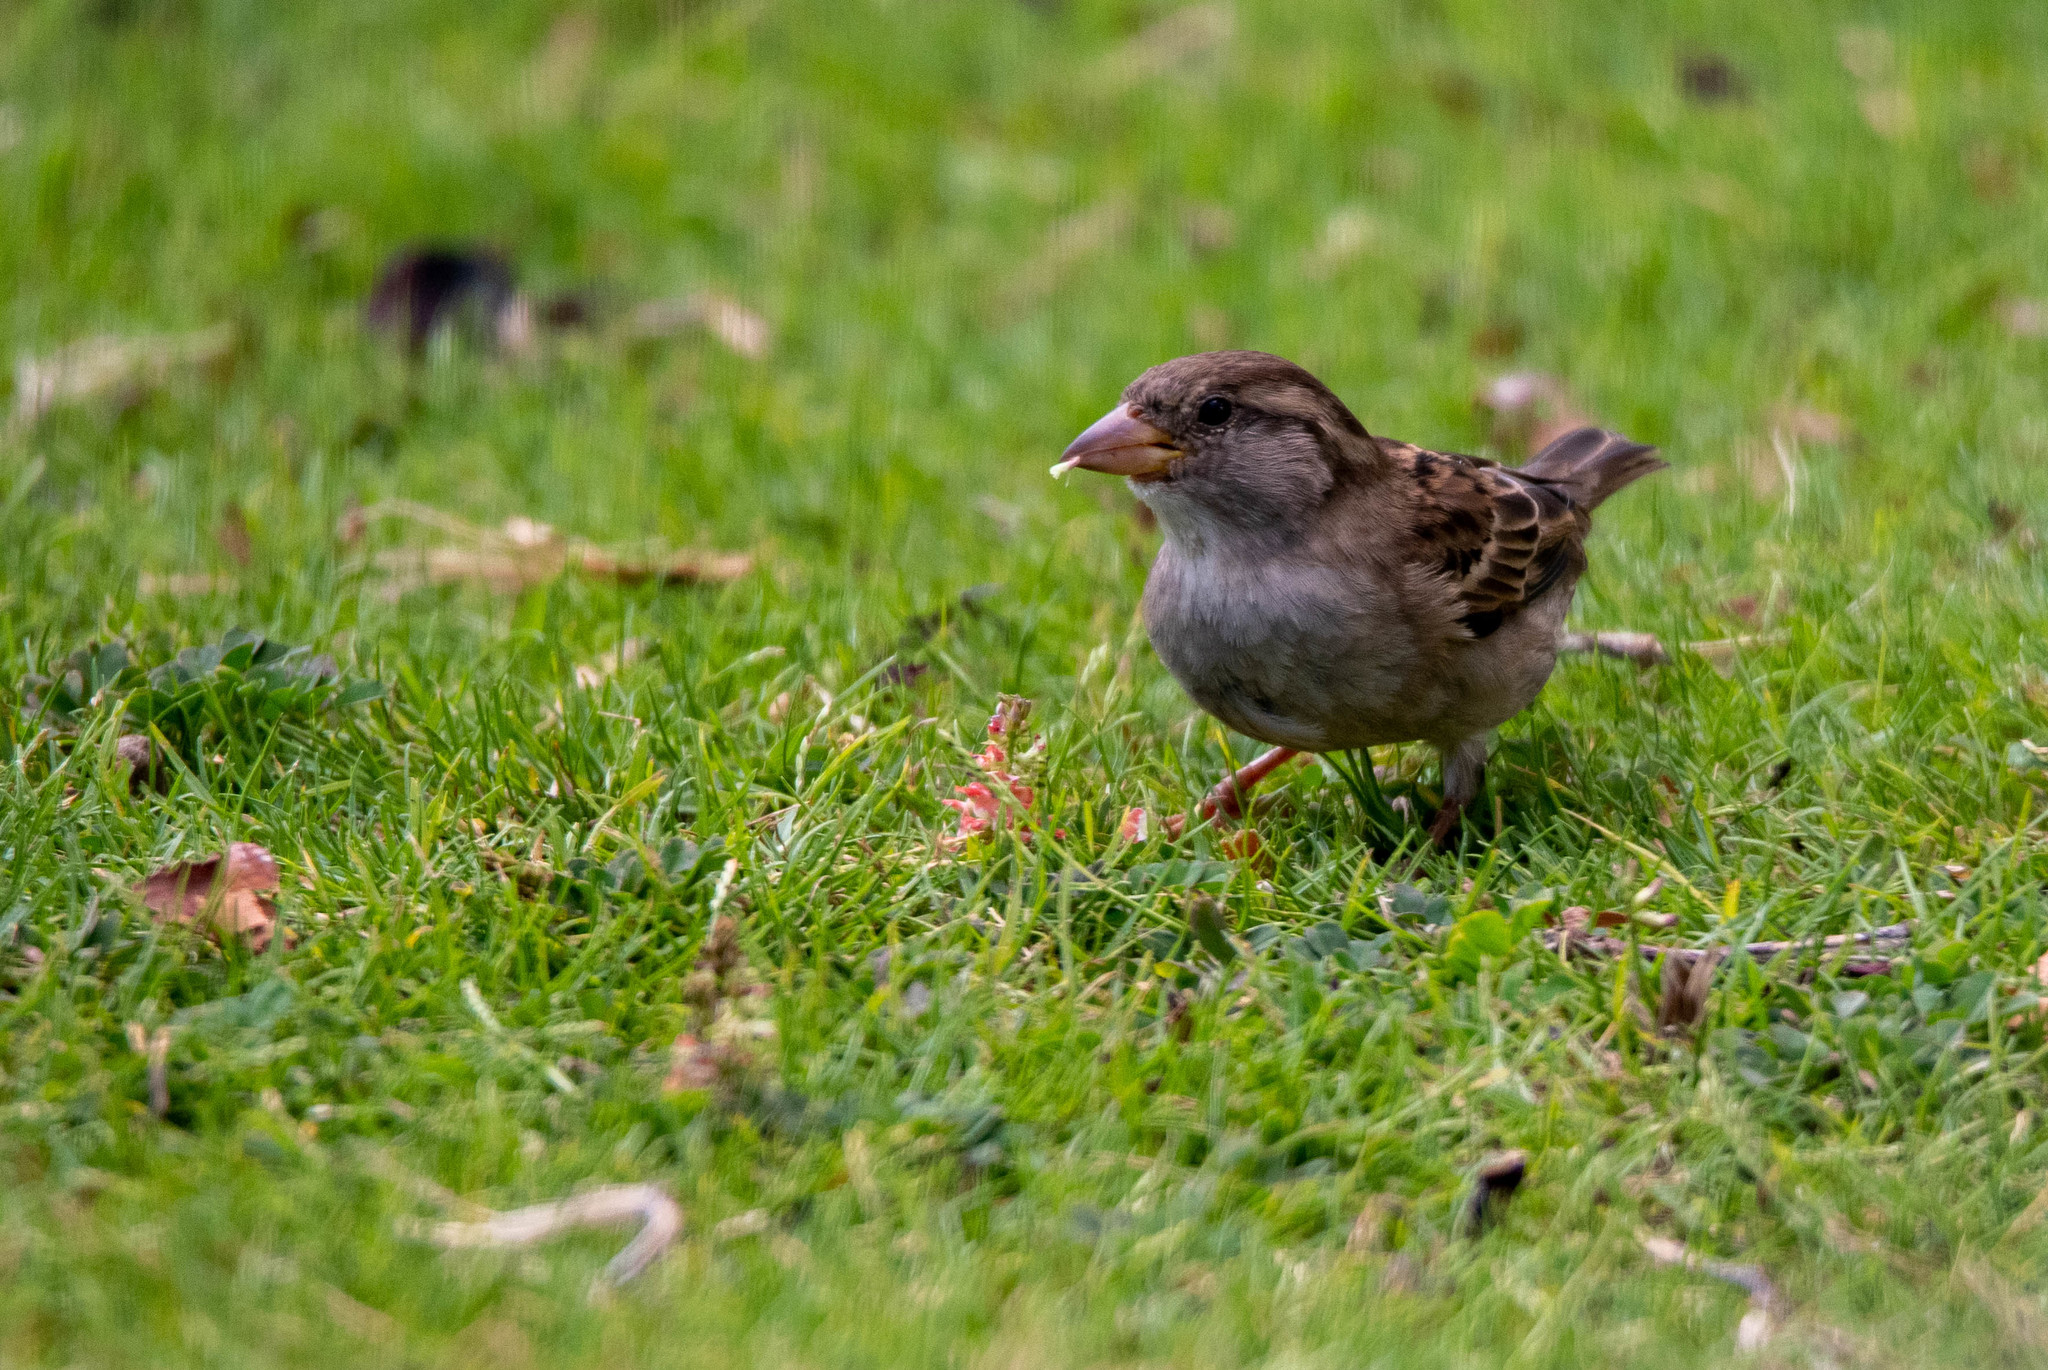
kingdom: Animalia
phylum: Chordata
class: Aves
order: Passeriformes
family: Passeridae
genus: Passer
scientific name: Passer domesticus
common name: House sparrow
